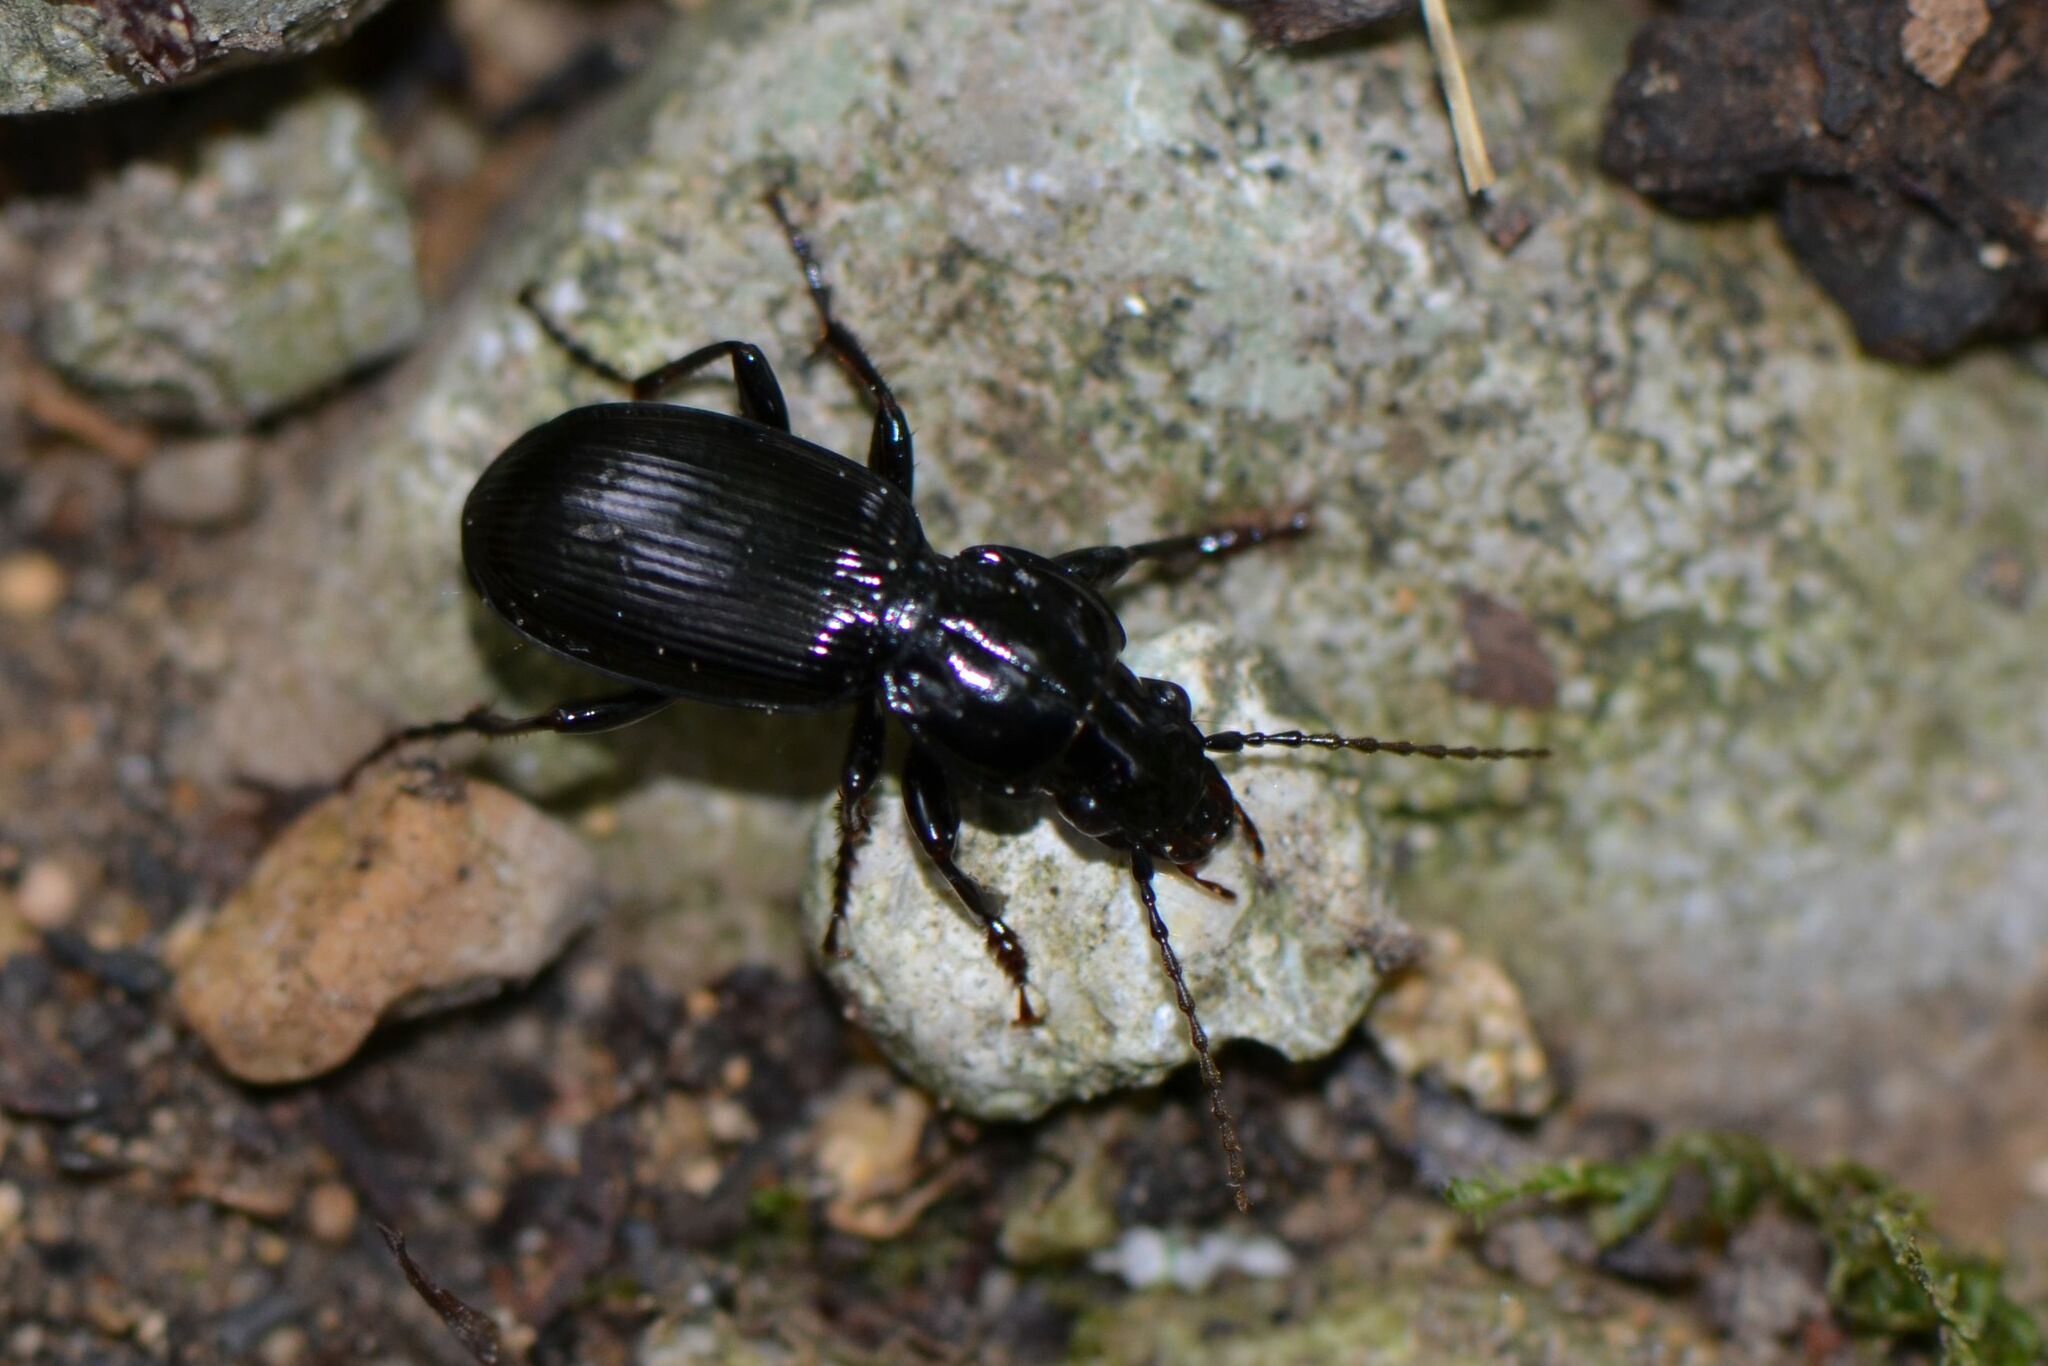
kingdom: Animalia
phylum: Arthropoda
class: Insecta
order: Coleoptera
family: Carabidae
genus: Pterostichus
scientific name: Pterostichus madidus
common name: Black clock
